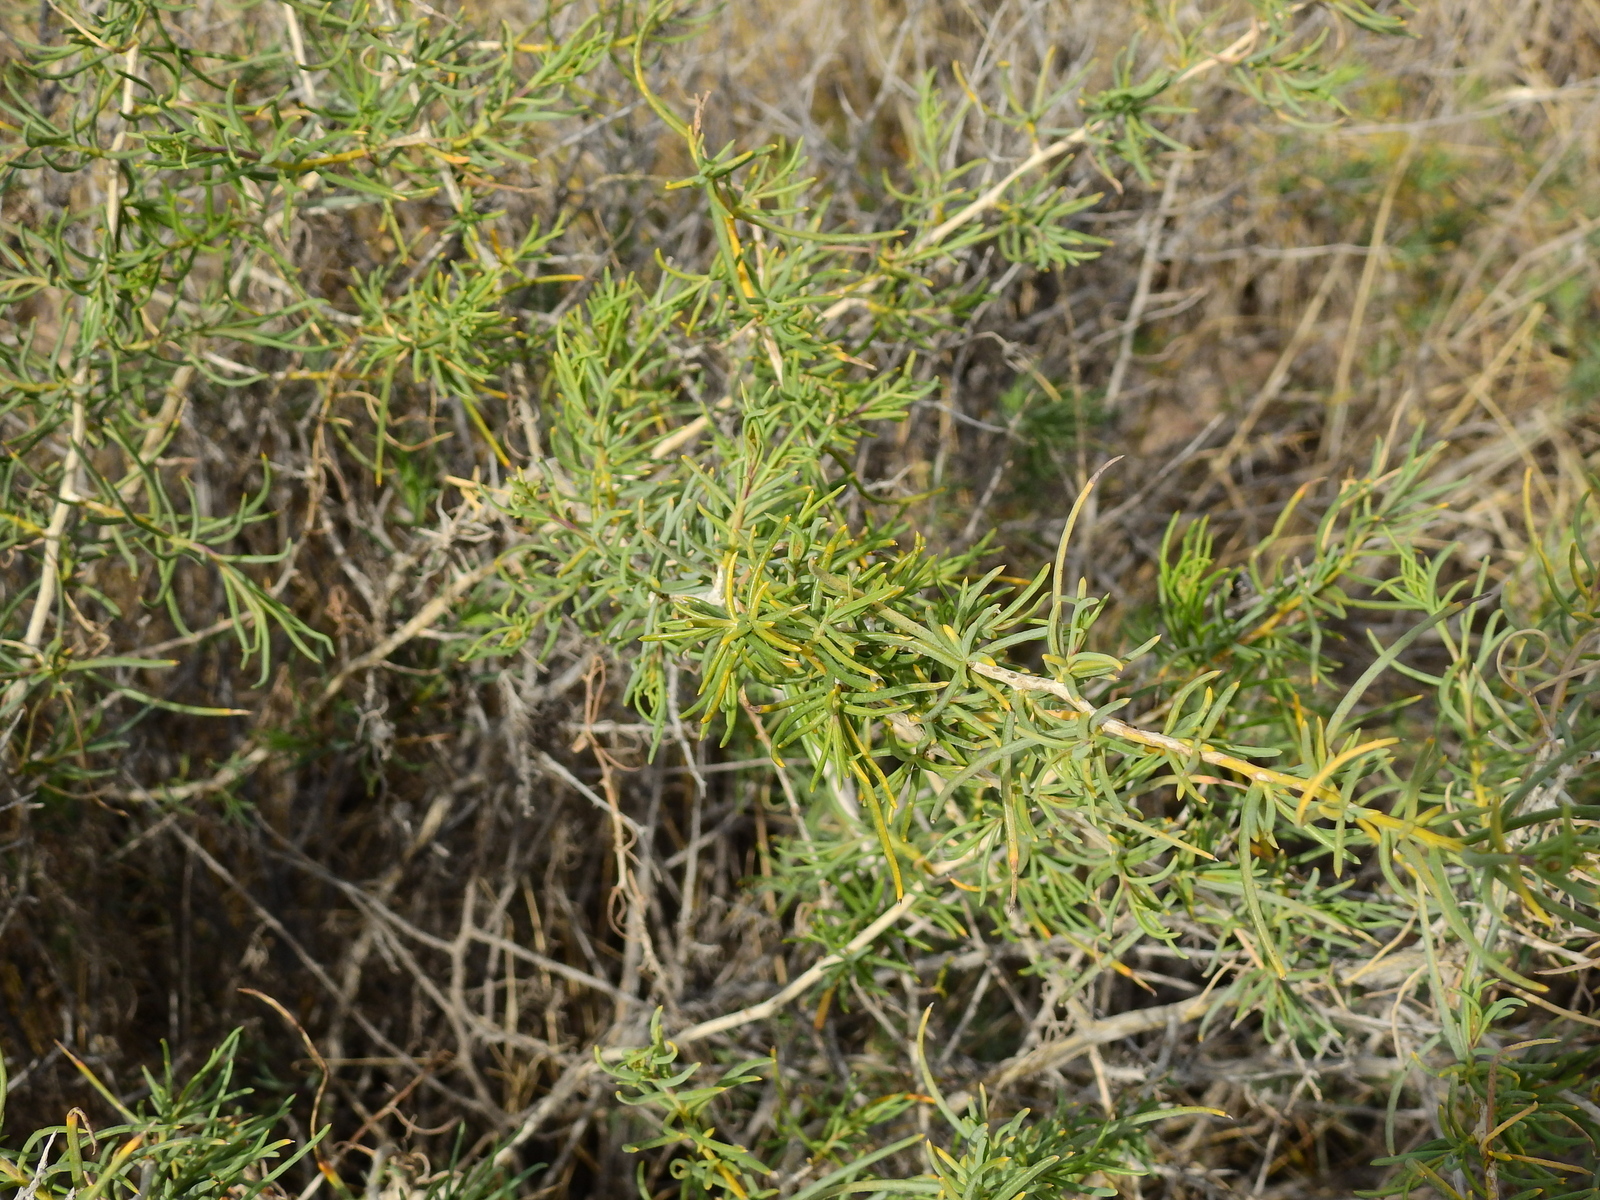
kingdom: Plantae
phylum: Tracheophyta
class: Magnoliopsida
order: Asterales
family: Asteraceae
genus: Senecio
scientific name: Senecio subulatus
